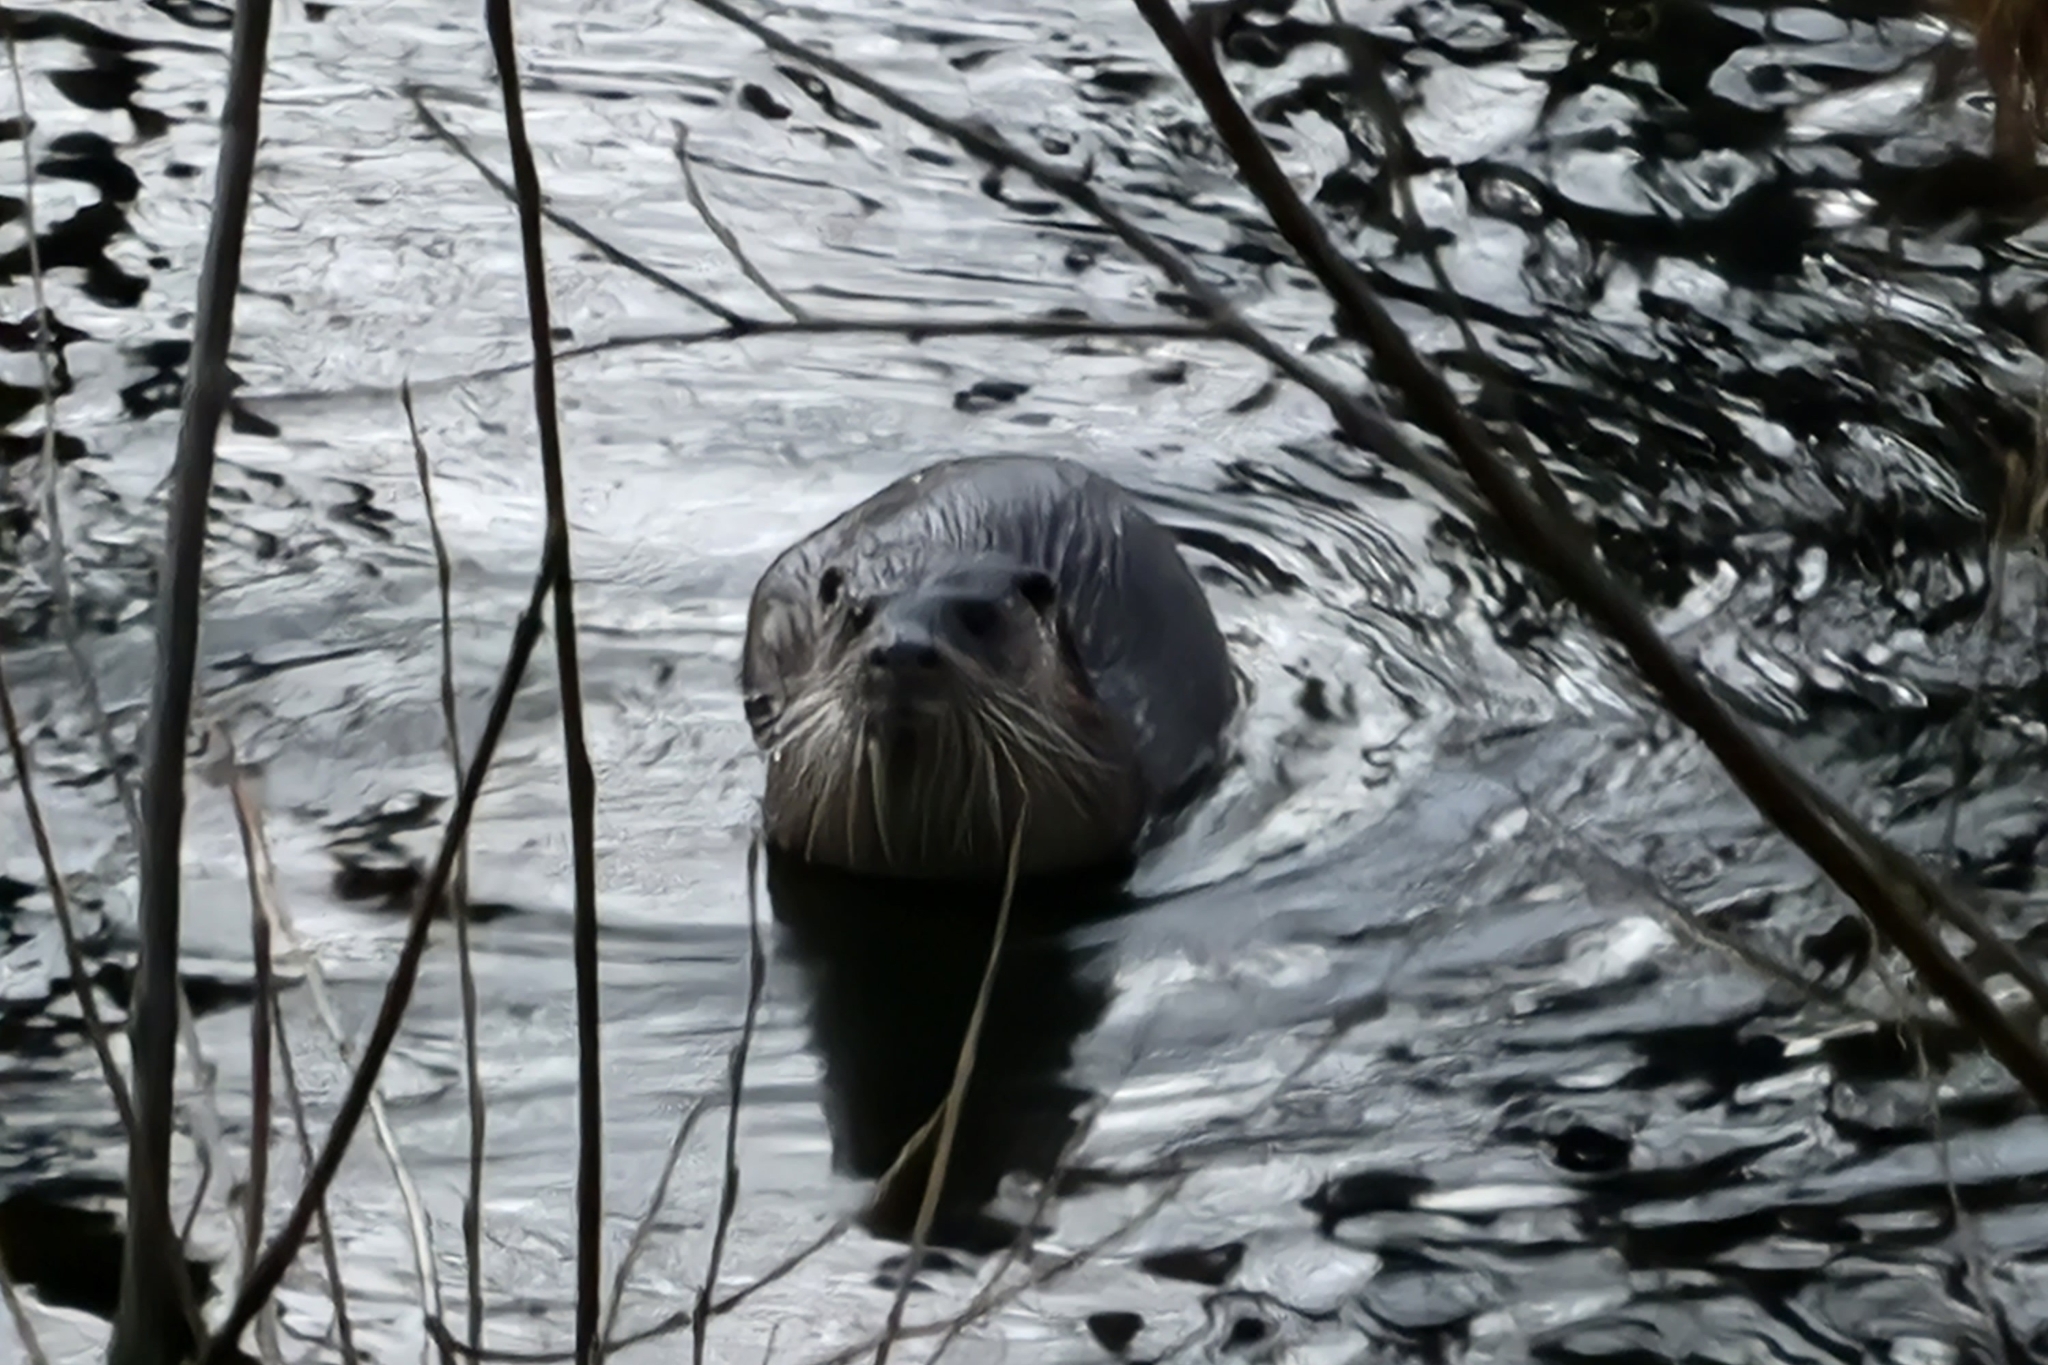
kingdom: Animalia
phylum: Chordata
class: Mammalia
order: Carnivora
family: Mustelidae
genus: Lutra
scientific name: Lutra lutra
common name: European otter
